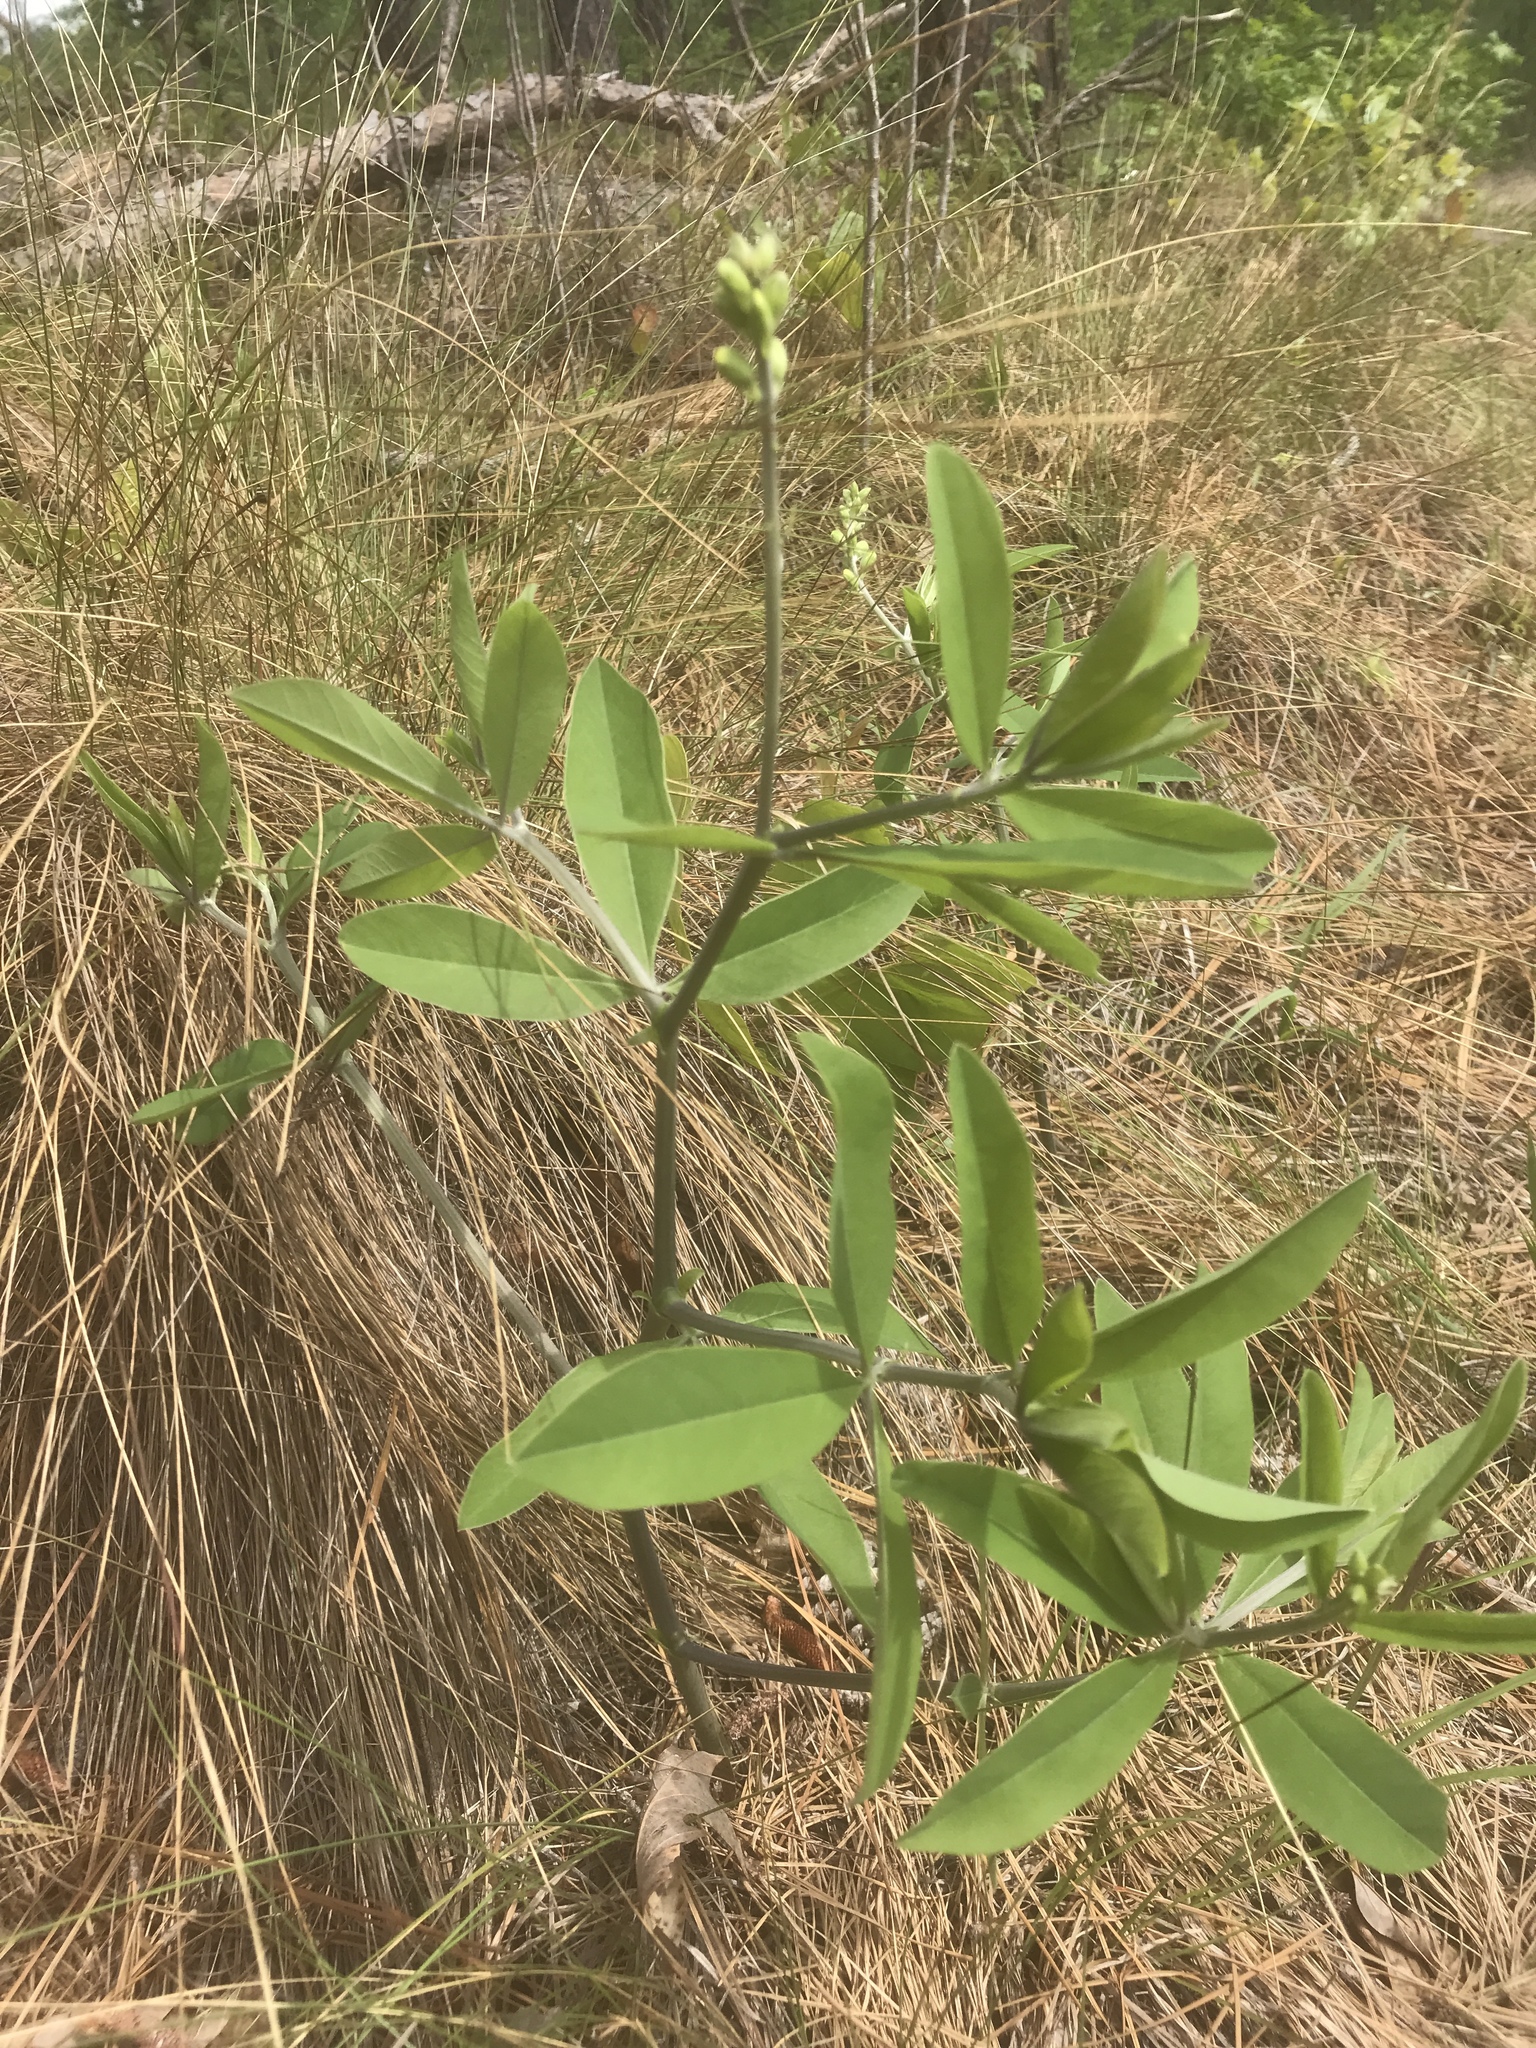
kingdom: Plantae
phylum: Tracheophyta
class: Magnoliopsida
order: Fabales
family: Fabaceae
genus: Baptisia
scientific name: Baptisia cinerea
